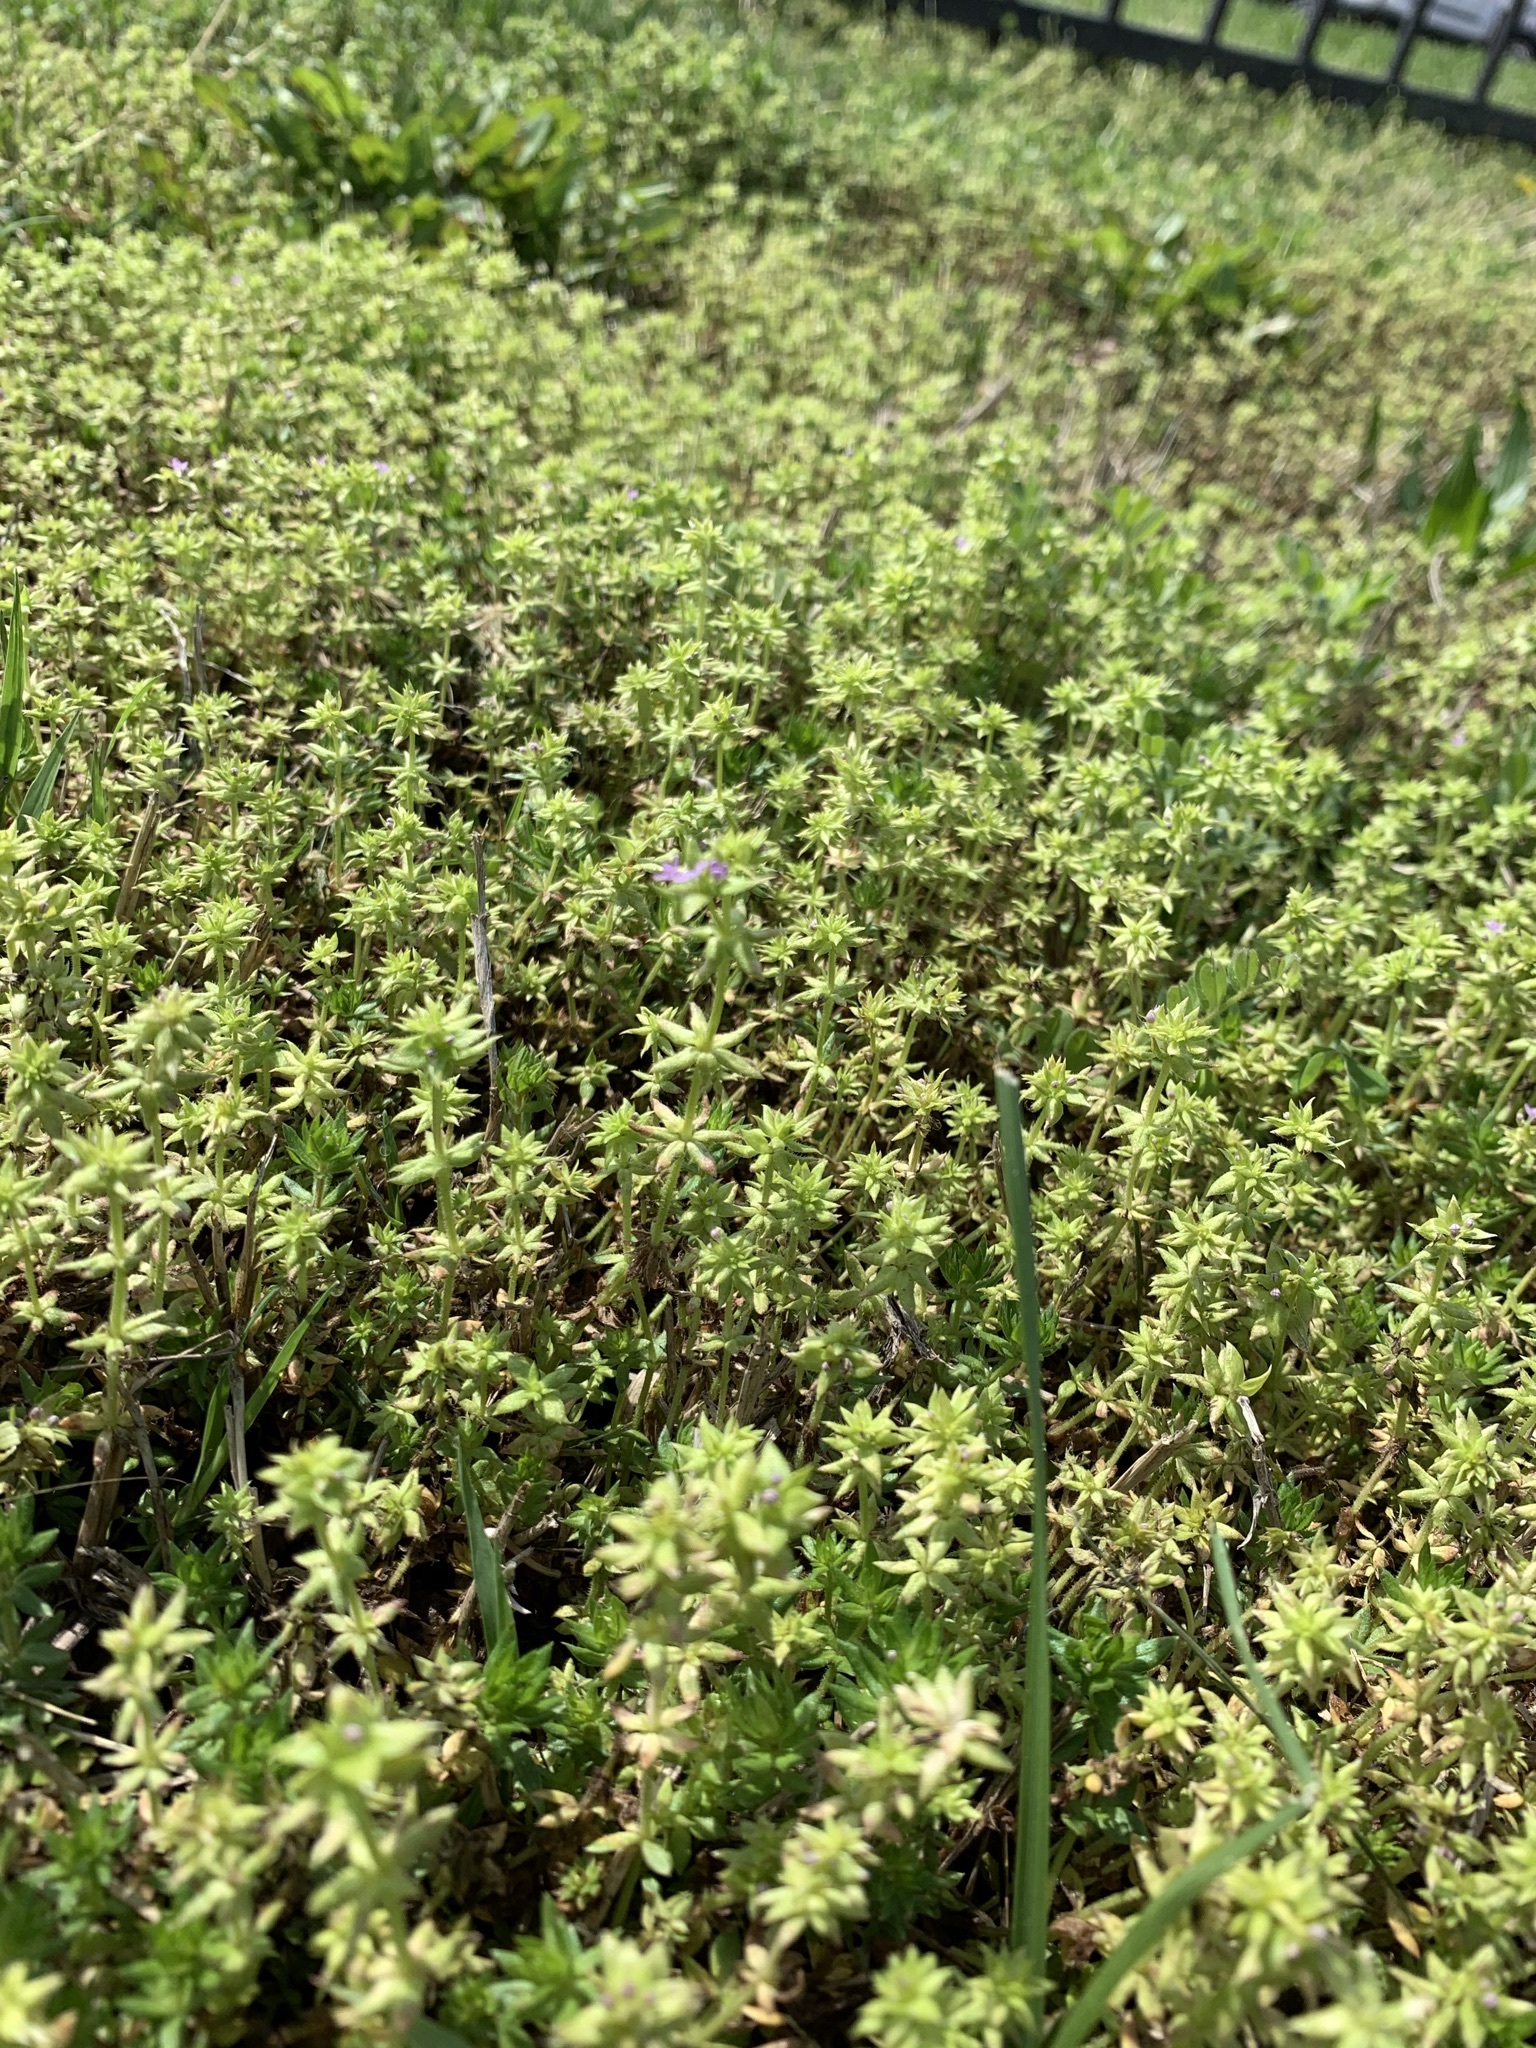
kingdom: Plantae
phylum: Tracheophyta
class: Magnoliopsida
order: Gentianales
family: Rubiaceae
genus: Sherardia
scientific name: Sherardia arvensis
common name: Field madder
